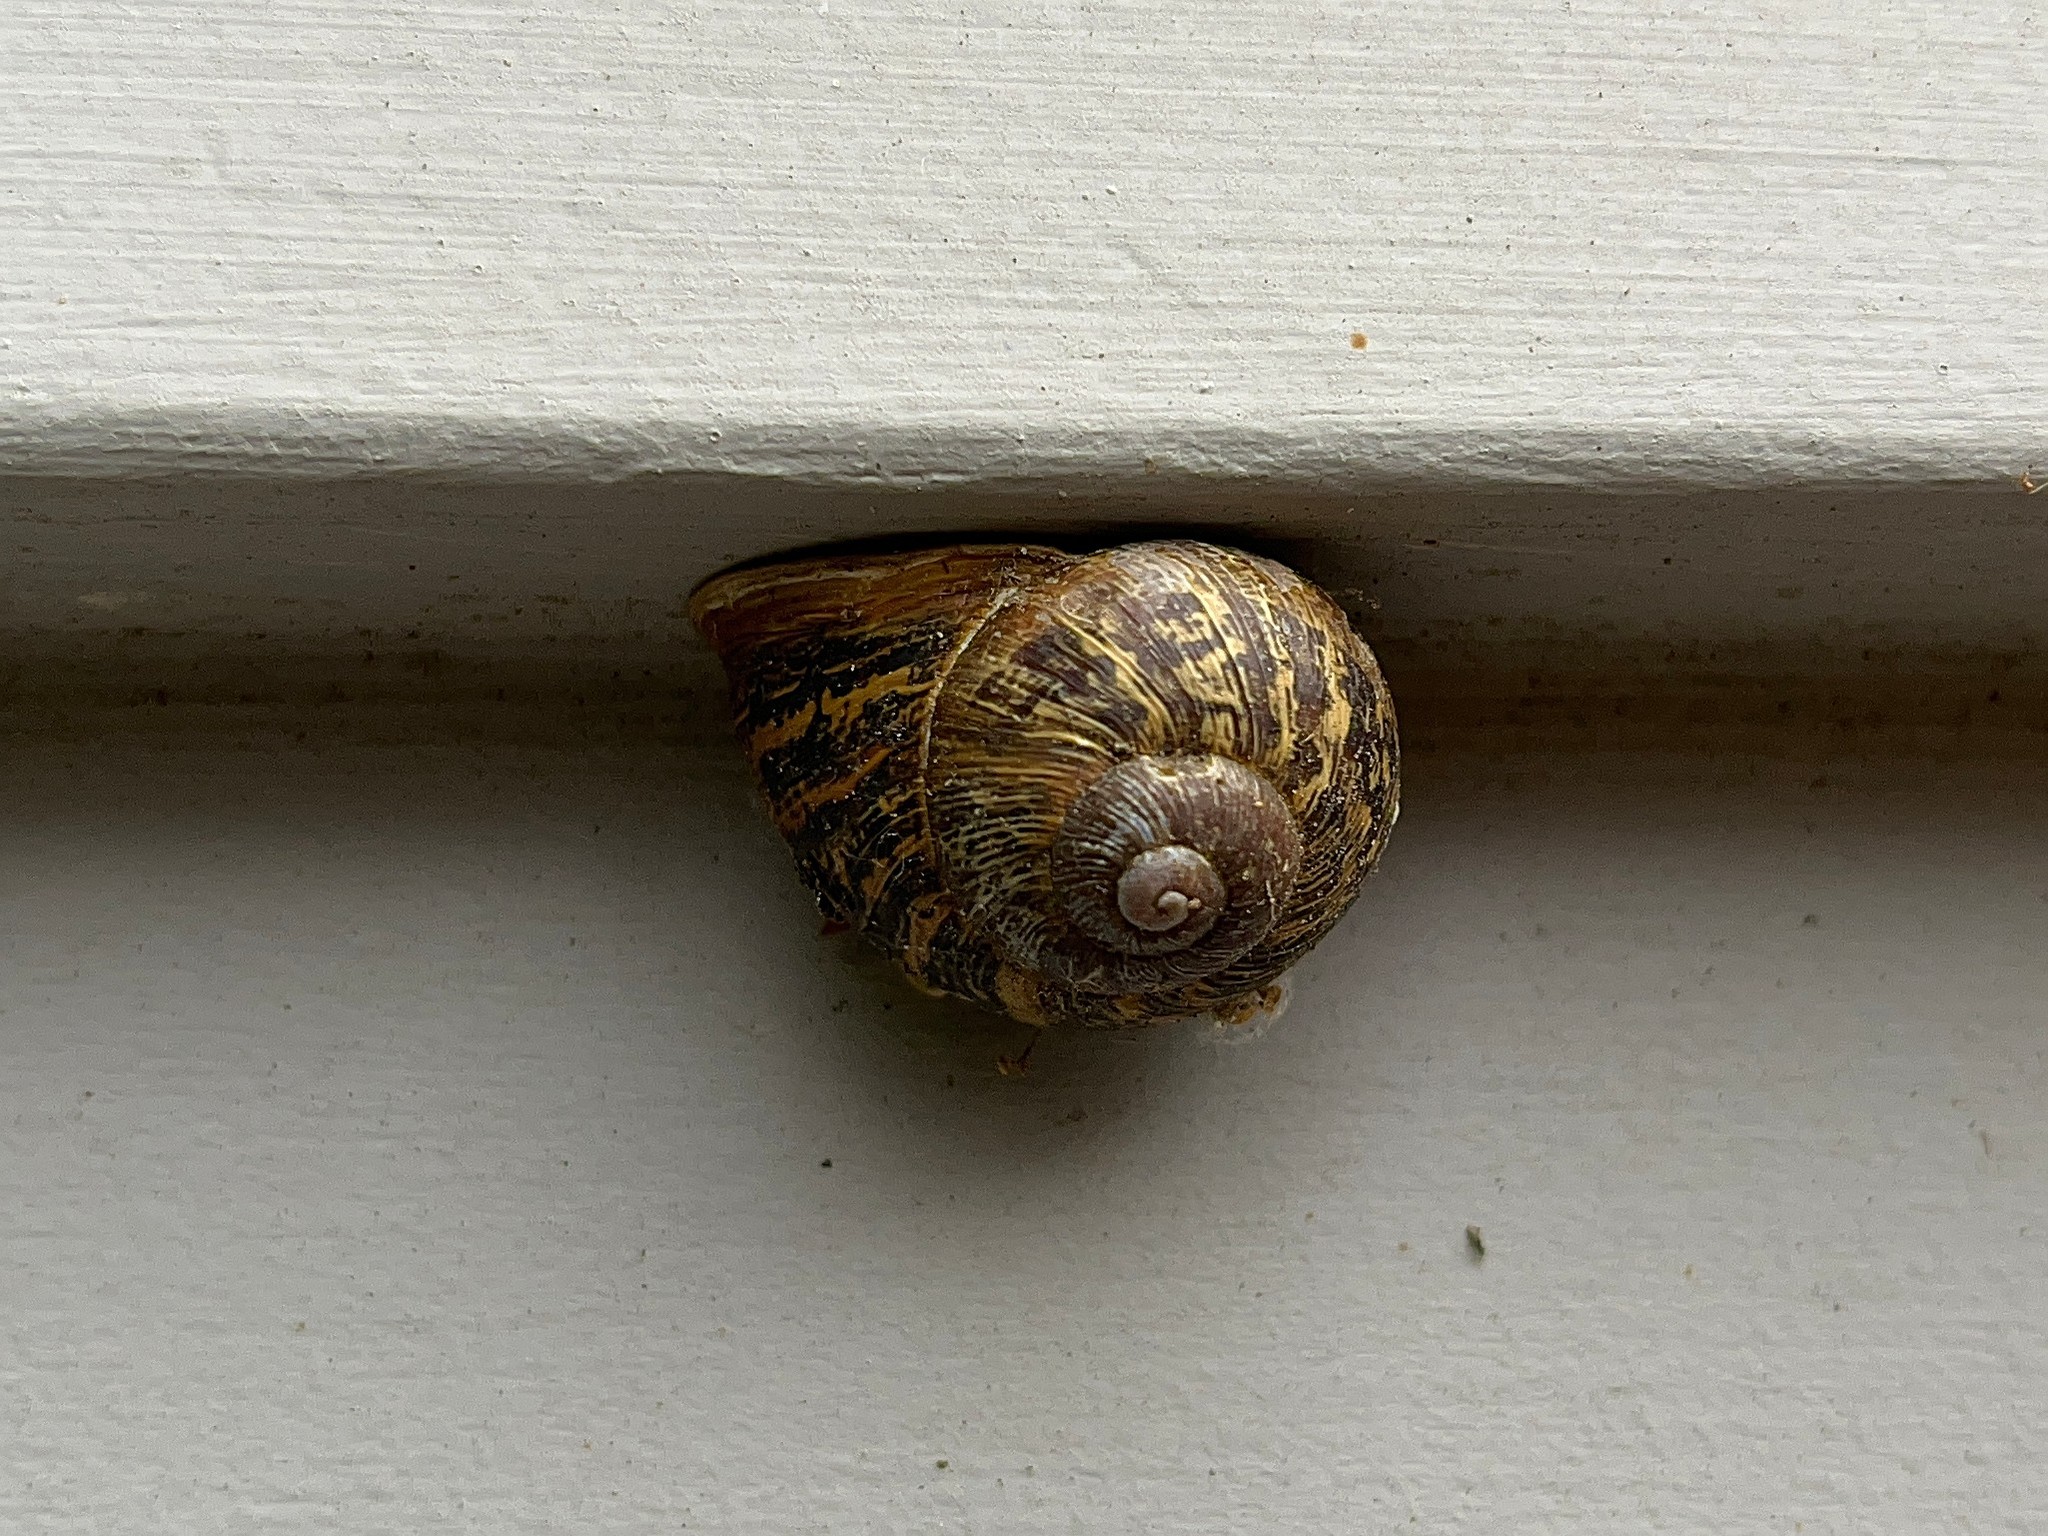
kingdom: Animalia
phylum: Mollusca
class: Gastropoda
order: Stylommatophora
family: Helicidae
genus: Cornu
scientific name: Cornu aspersum
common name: Brown garden snail
